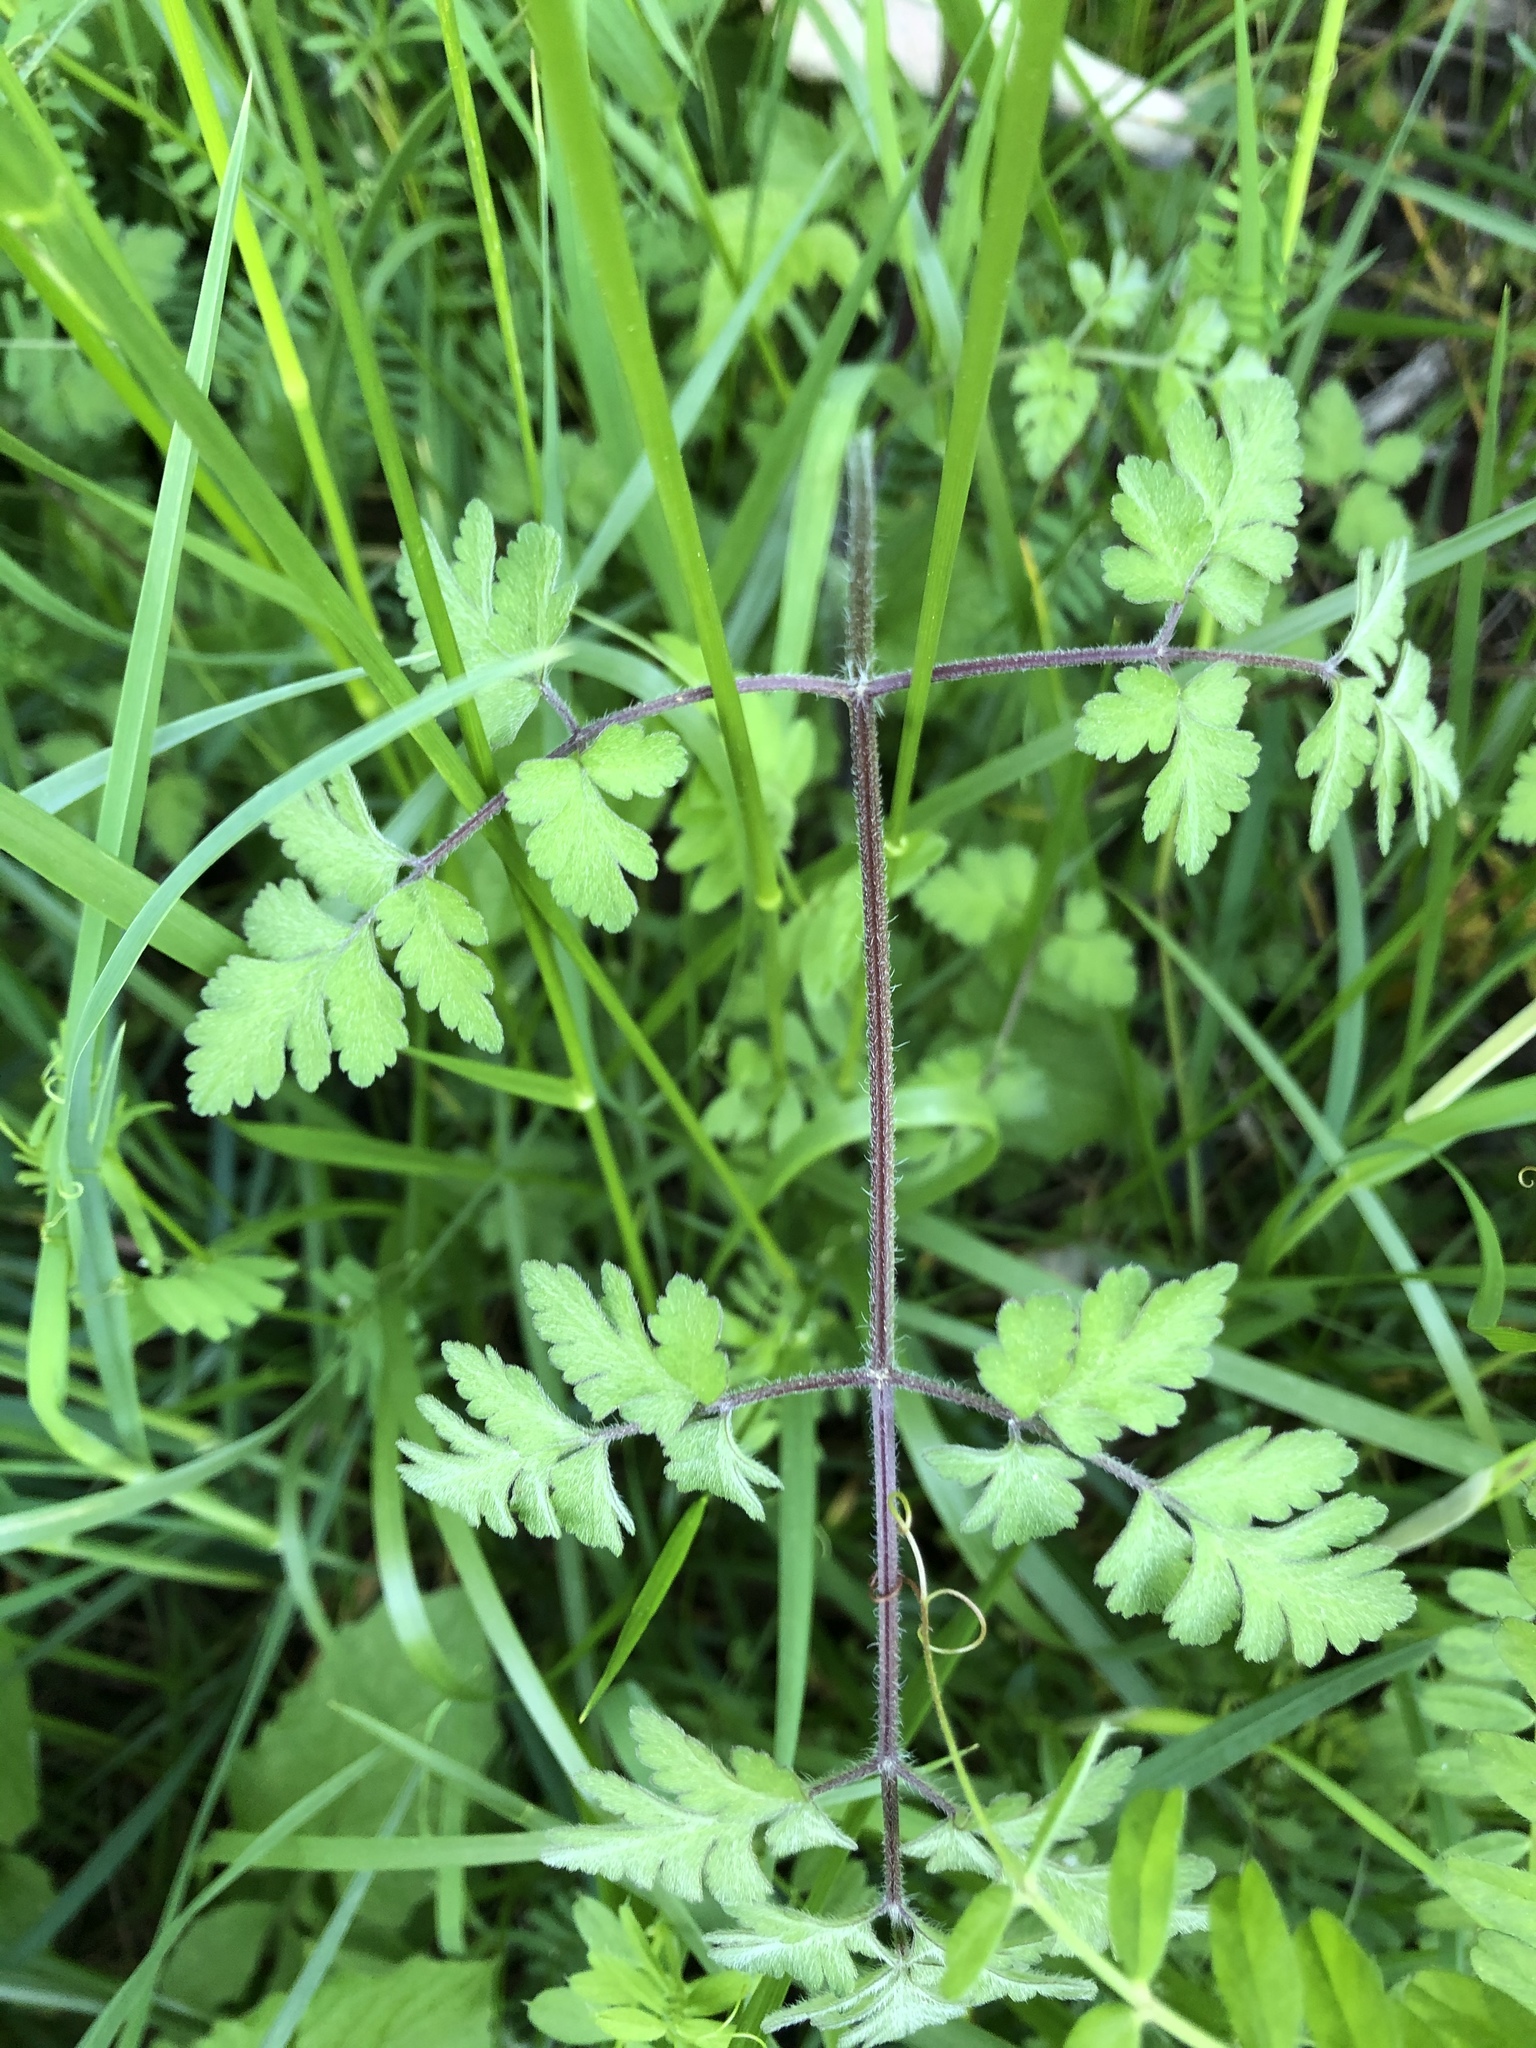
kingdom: Plantae
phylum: Tracheophyta
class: Magnoliopsida
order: Apiales
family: Apiaceae
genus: Chaerophyllum
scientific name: Chaerophyllum temulum
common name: Rough chervil
